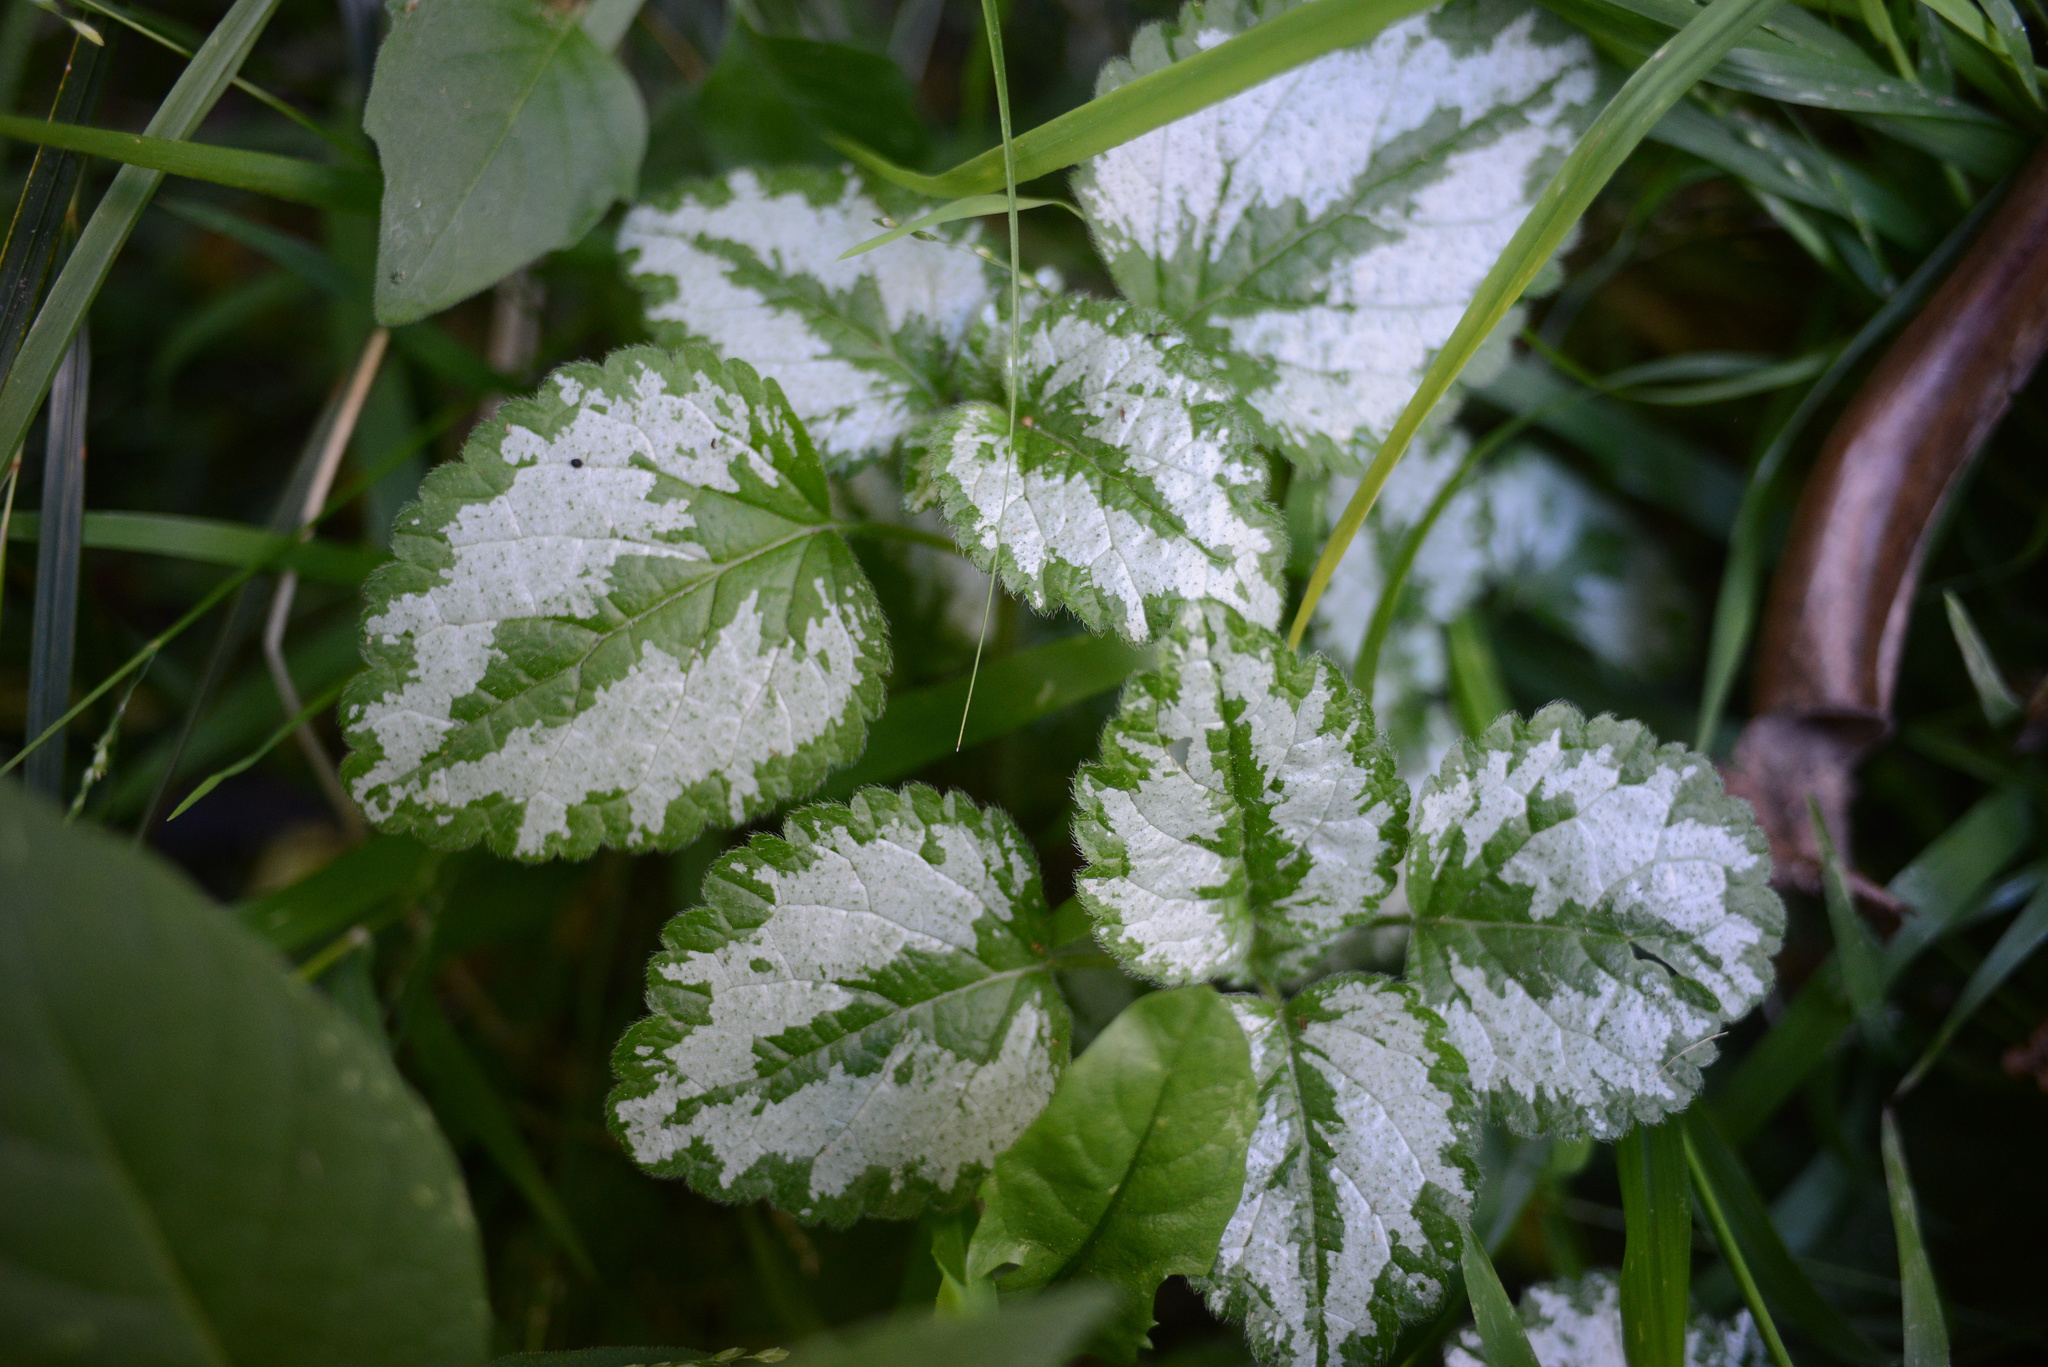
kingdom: Plantae
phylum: Tracheophyta
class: Magnoliopsida
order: Lamiales
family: Lamiaceae
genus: Lamium
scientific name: Lamium galeobdolon
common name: Yellow archangel
